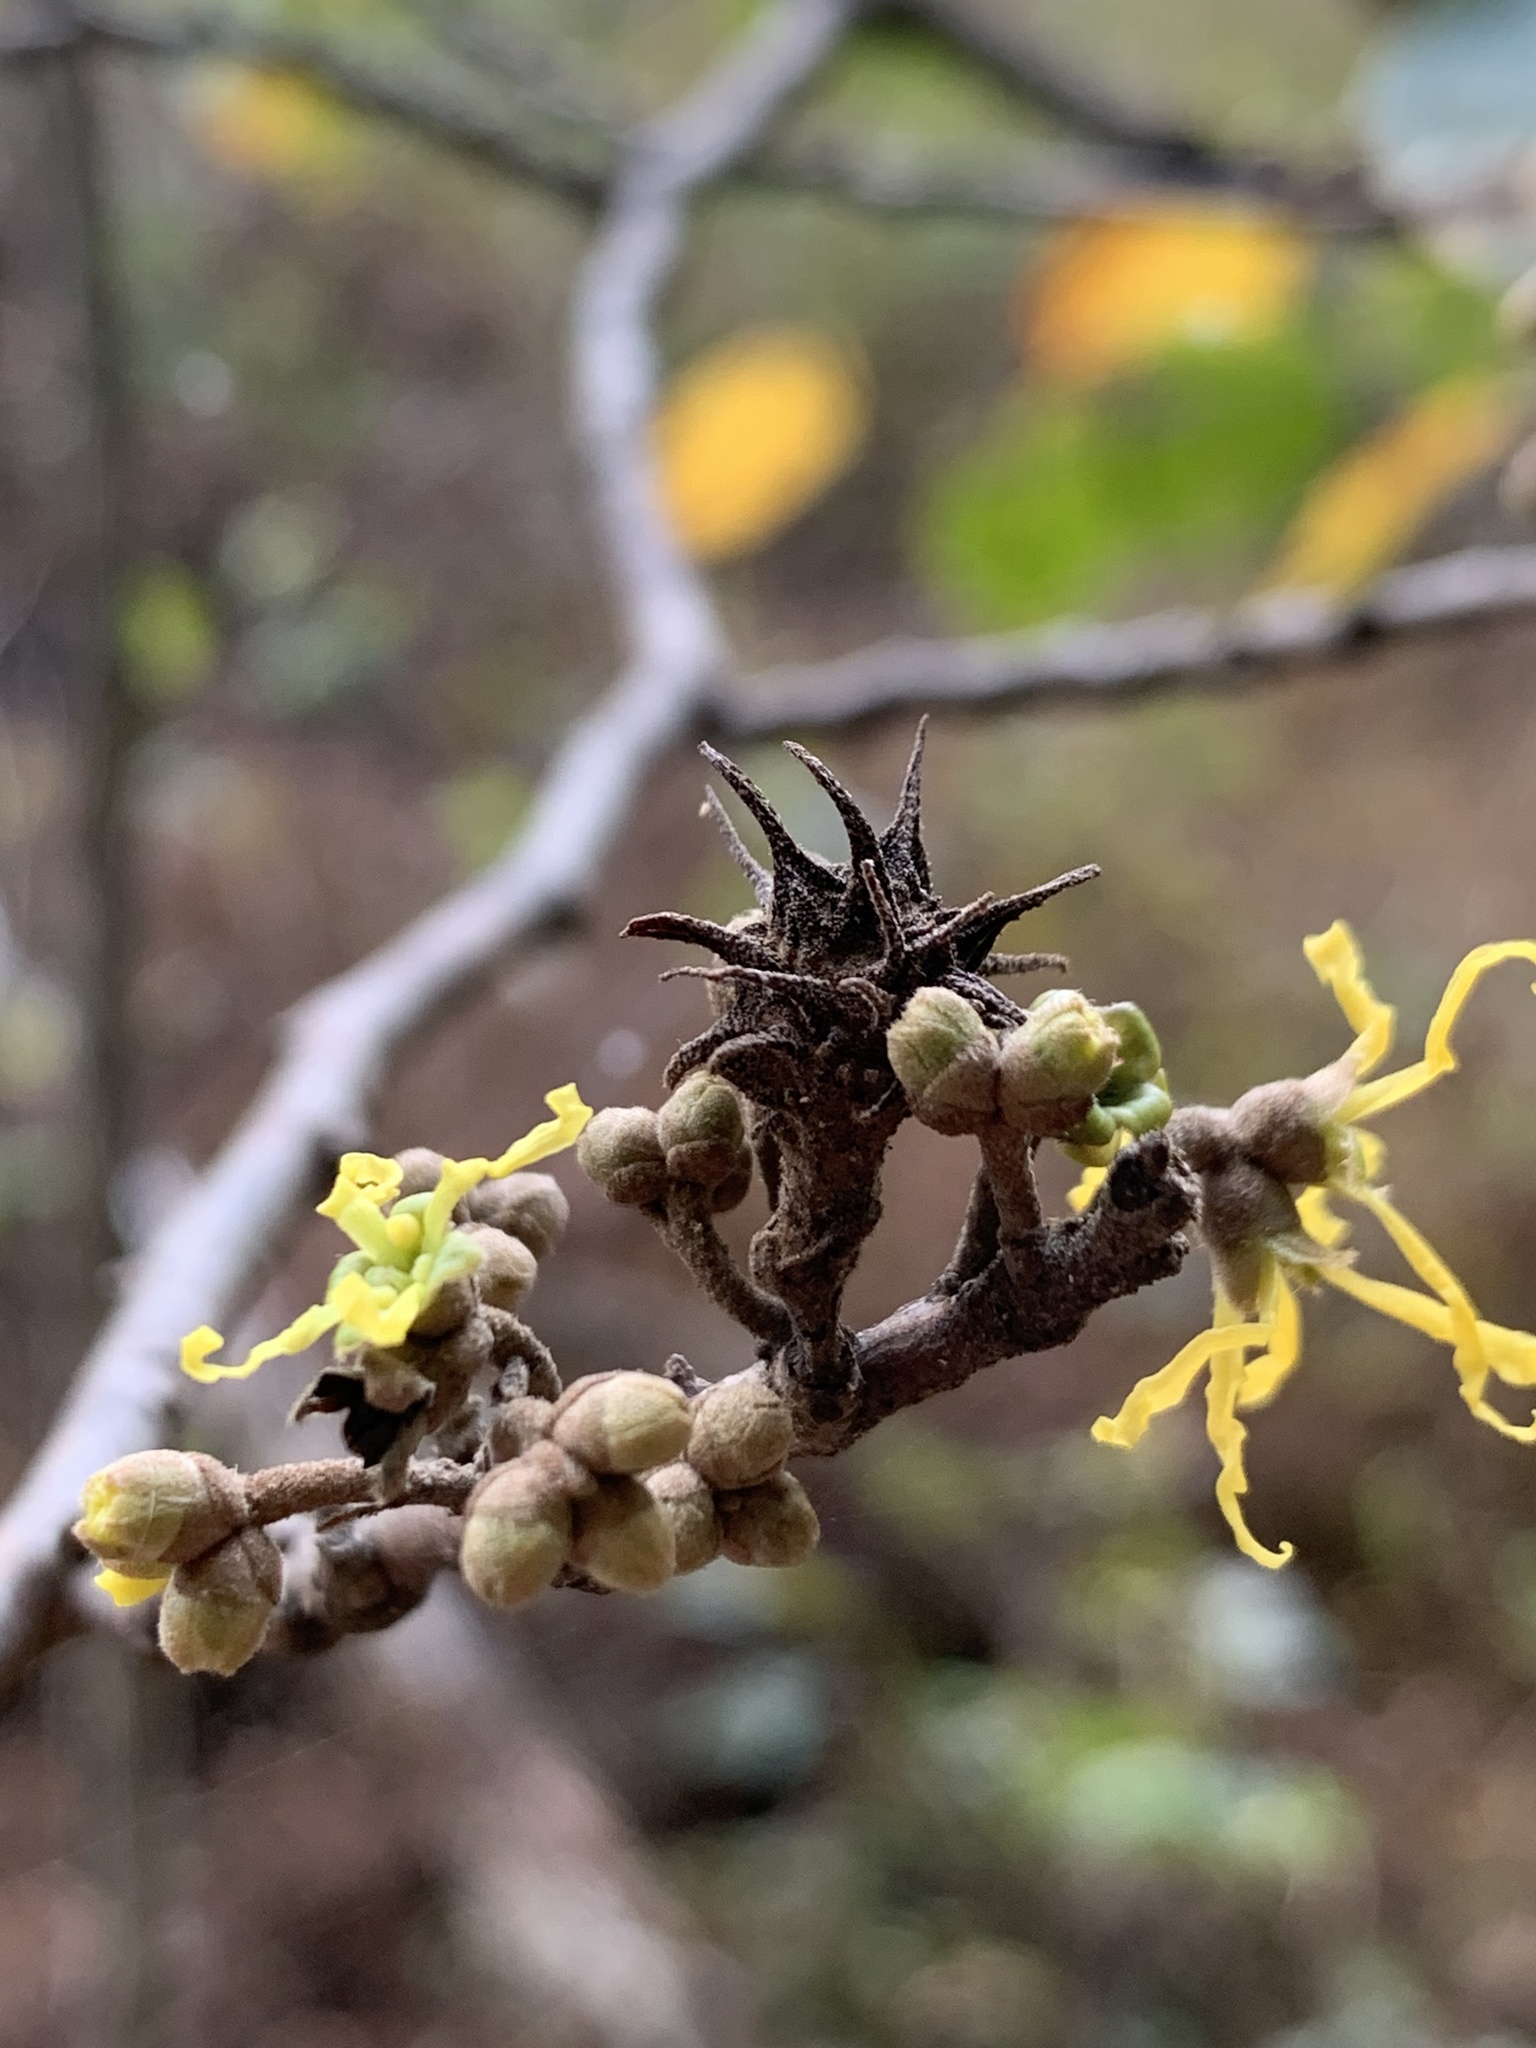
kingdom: Animalia
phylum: Arthropoda
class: Insecta
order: Hemiptera
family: Aphididae
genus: Hamamelistes
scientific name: Hamamelistes spinosus
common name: Witch hazel gall aphid
